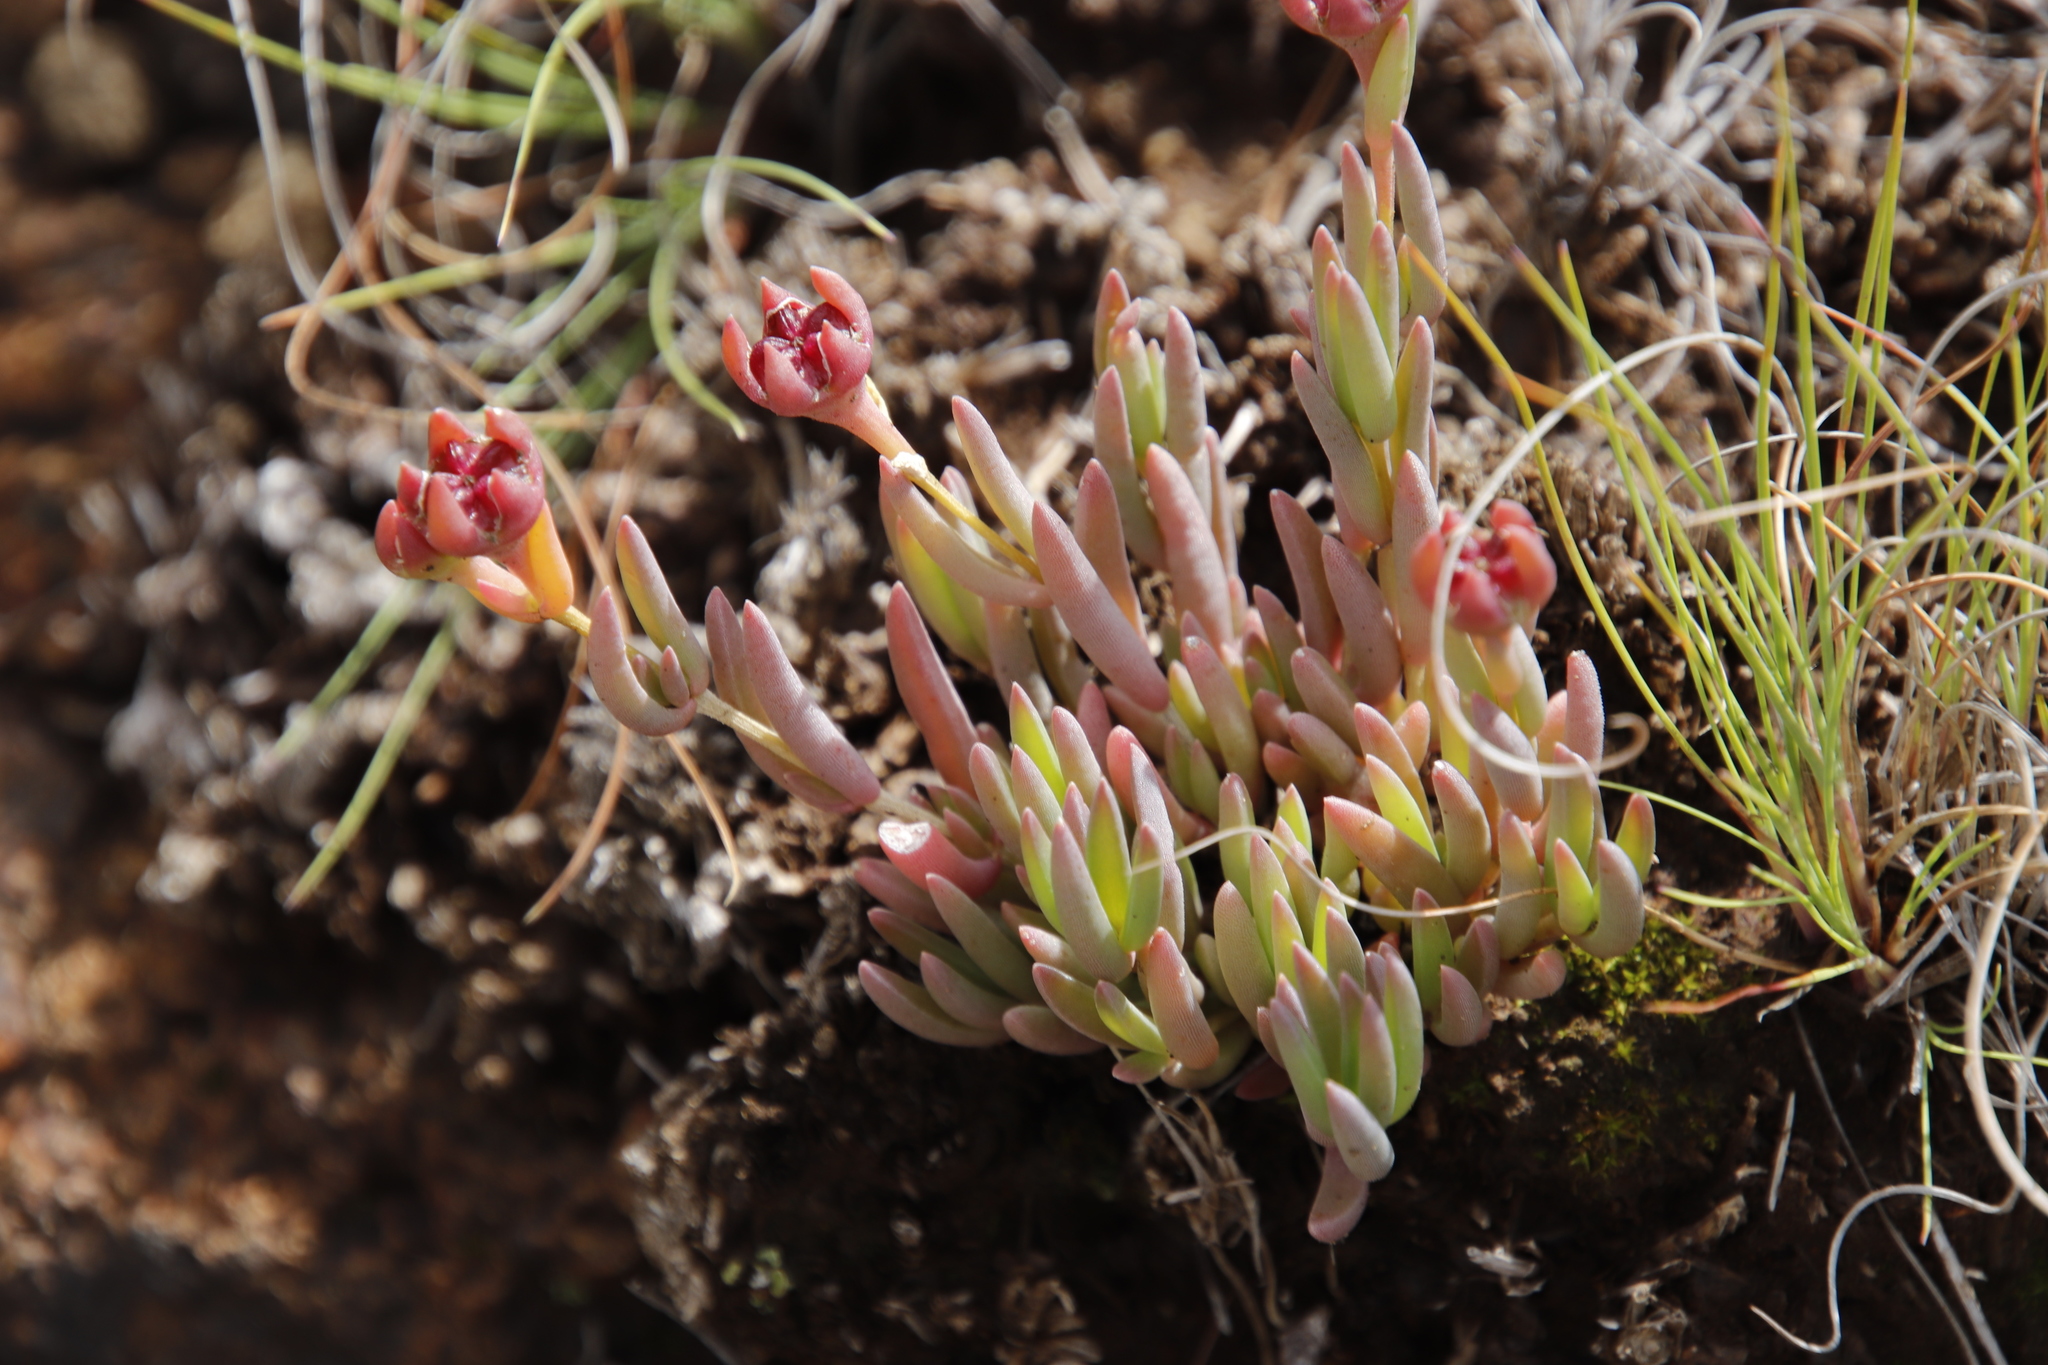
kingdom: Plantae
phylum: Tracheophyta
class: Magnoliopsida
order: Caryophyllales
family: Aizoaceae
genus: Delosperma
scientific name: Delosperma brevisepalum
